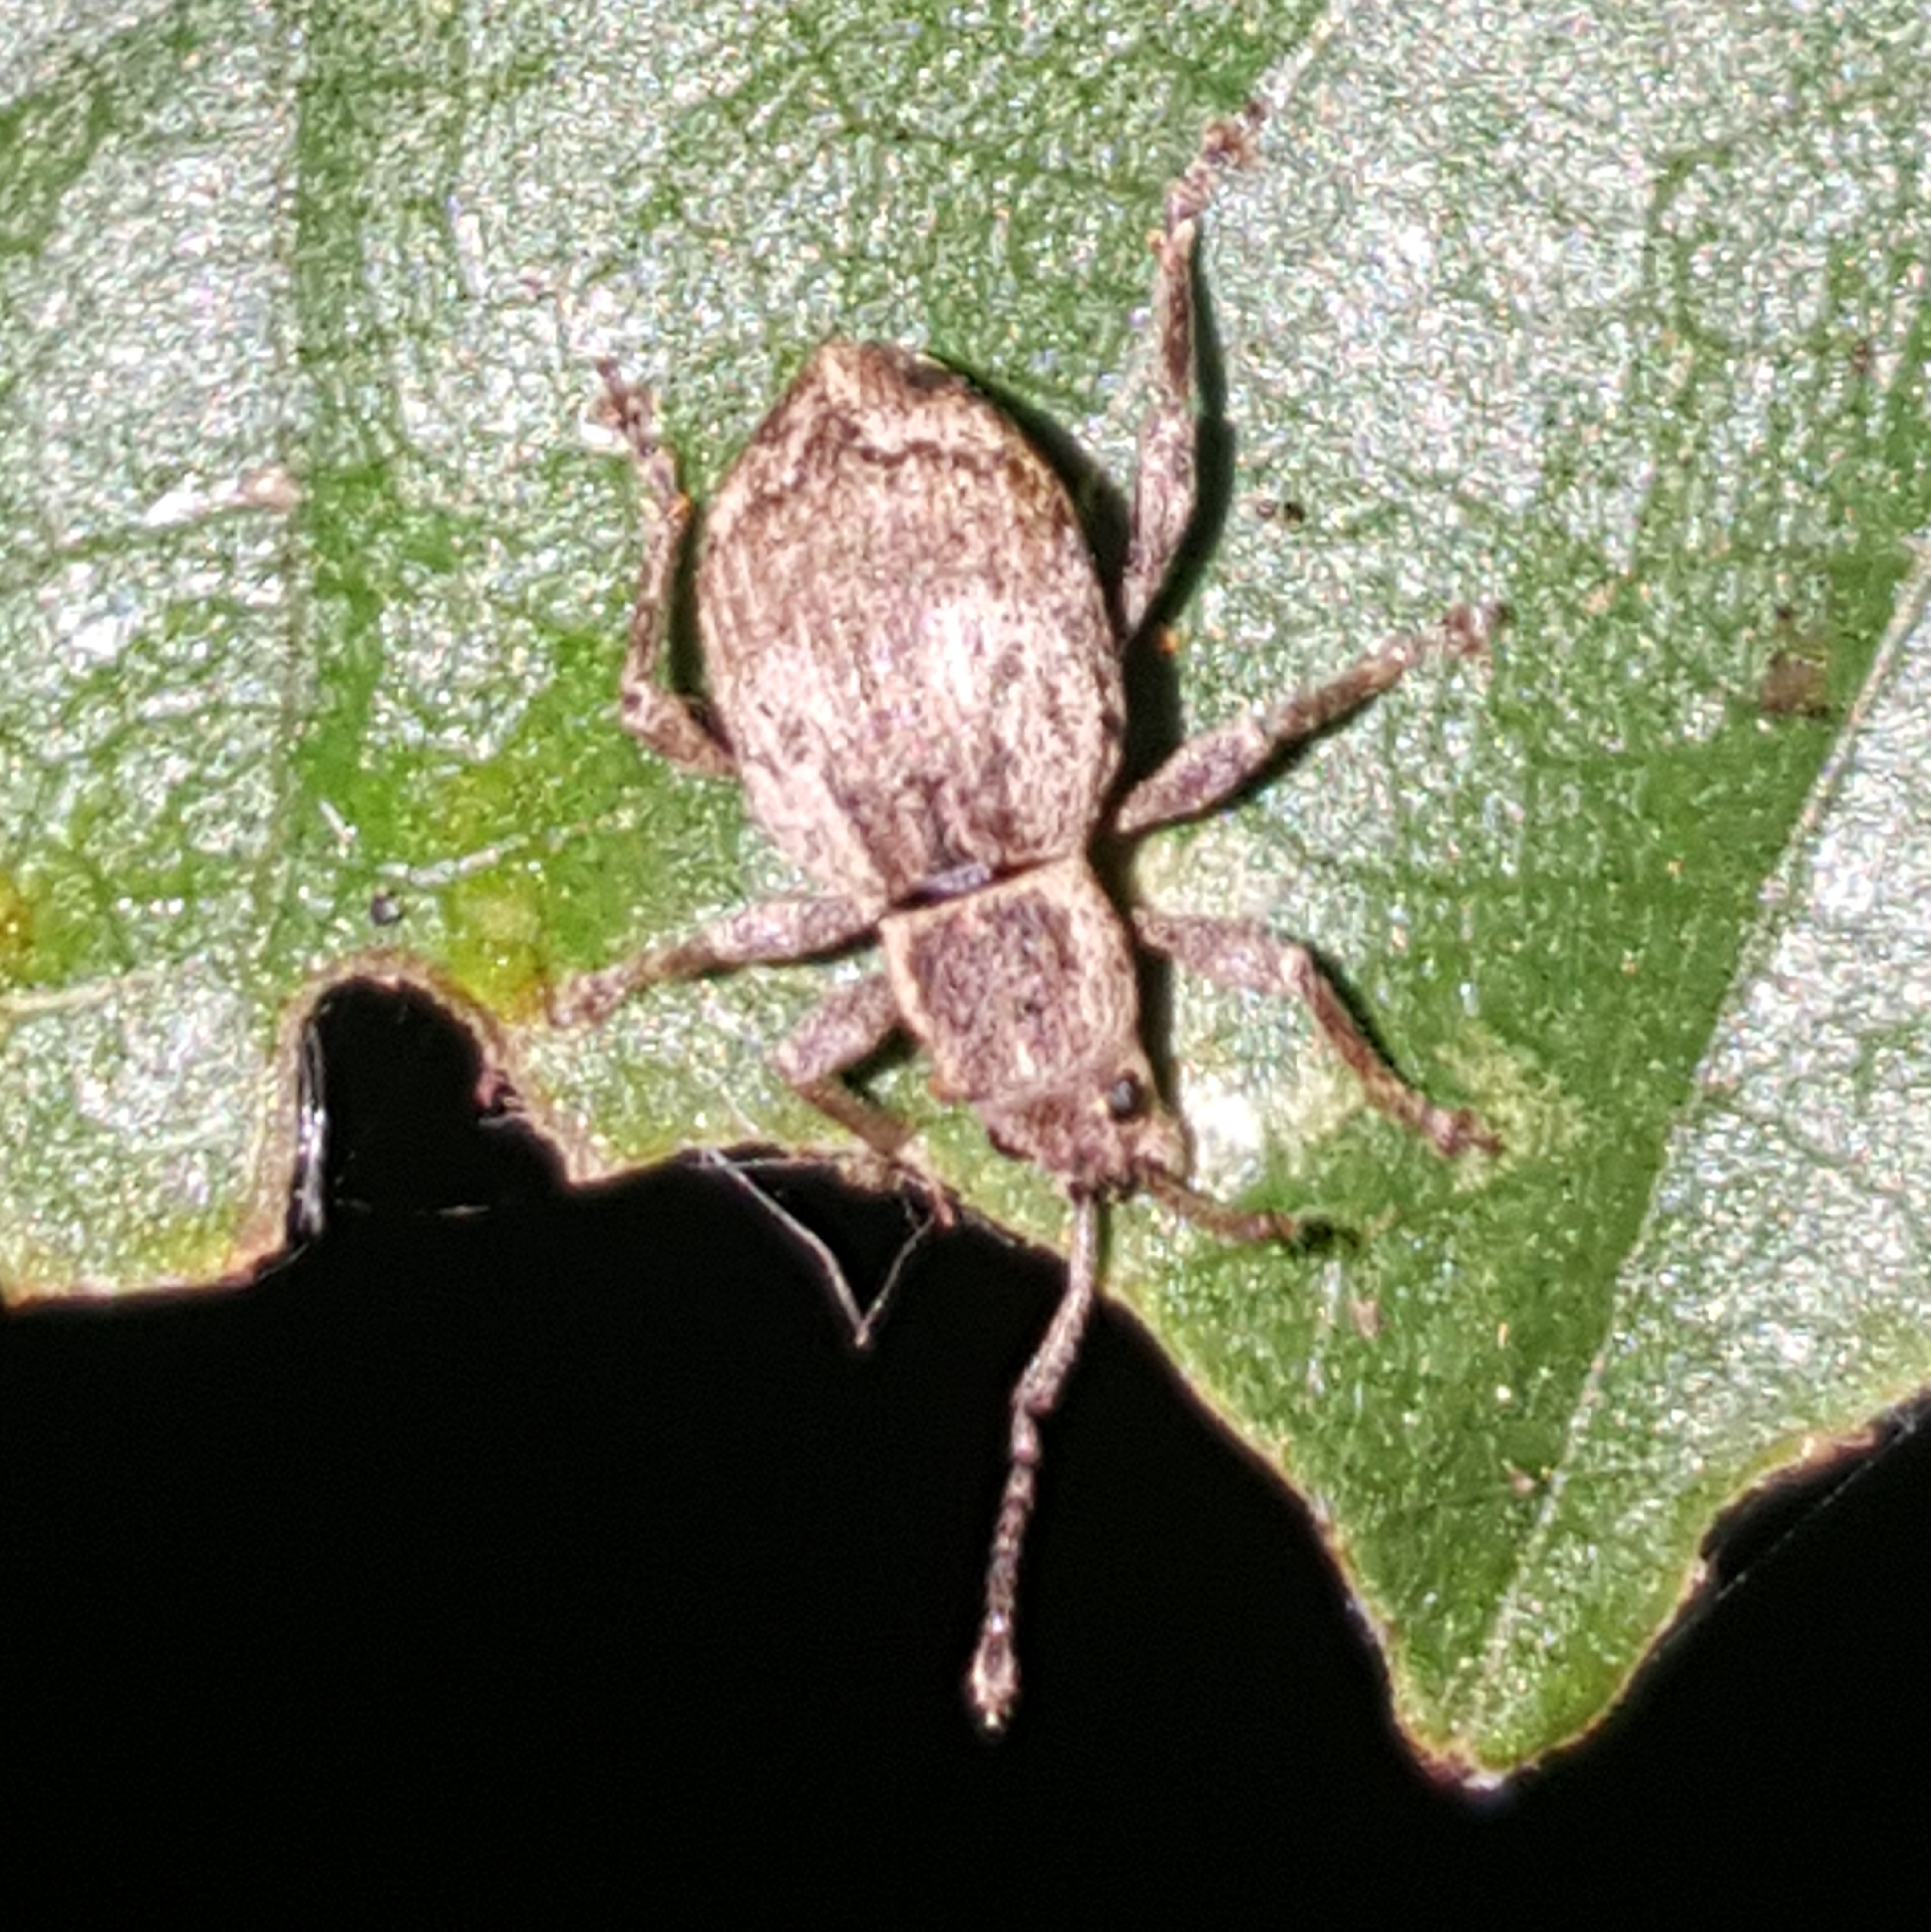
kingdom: Animalia
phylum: Arthropoda
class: Insecta
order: Coleoptera
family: Curculionidae
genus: Sciopithes
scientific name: Sciopithes obscurus
